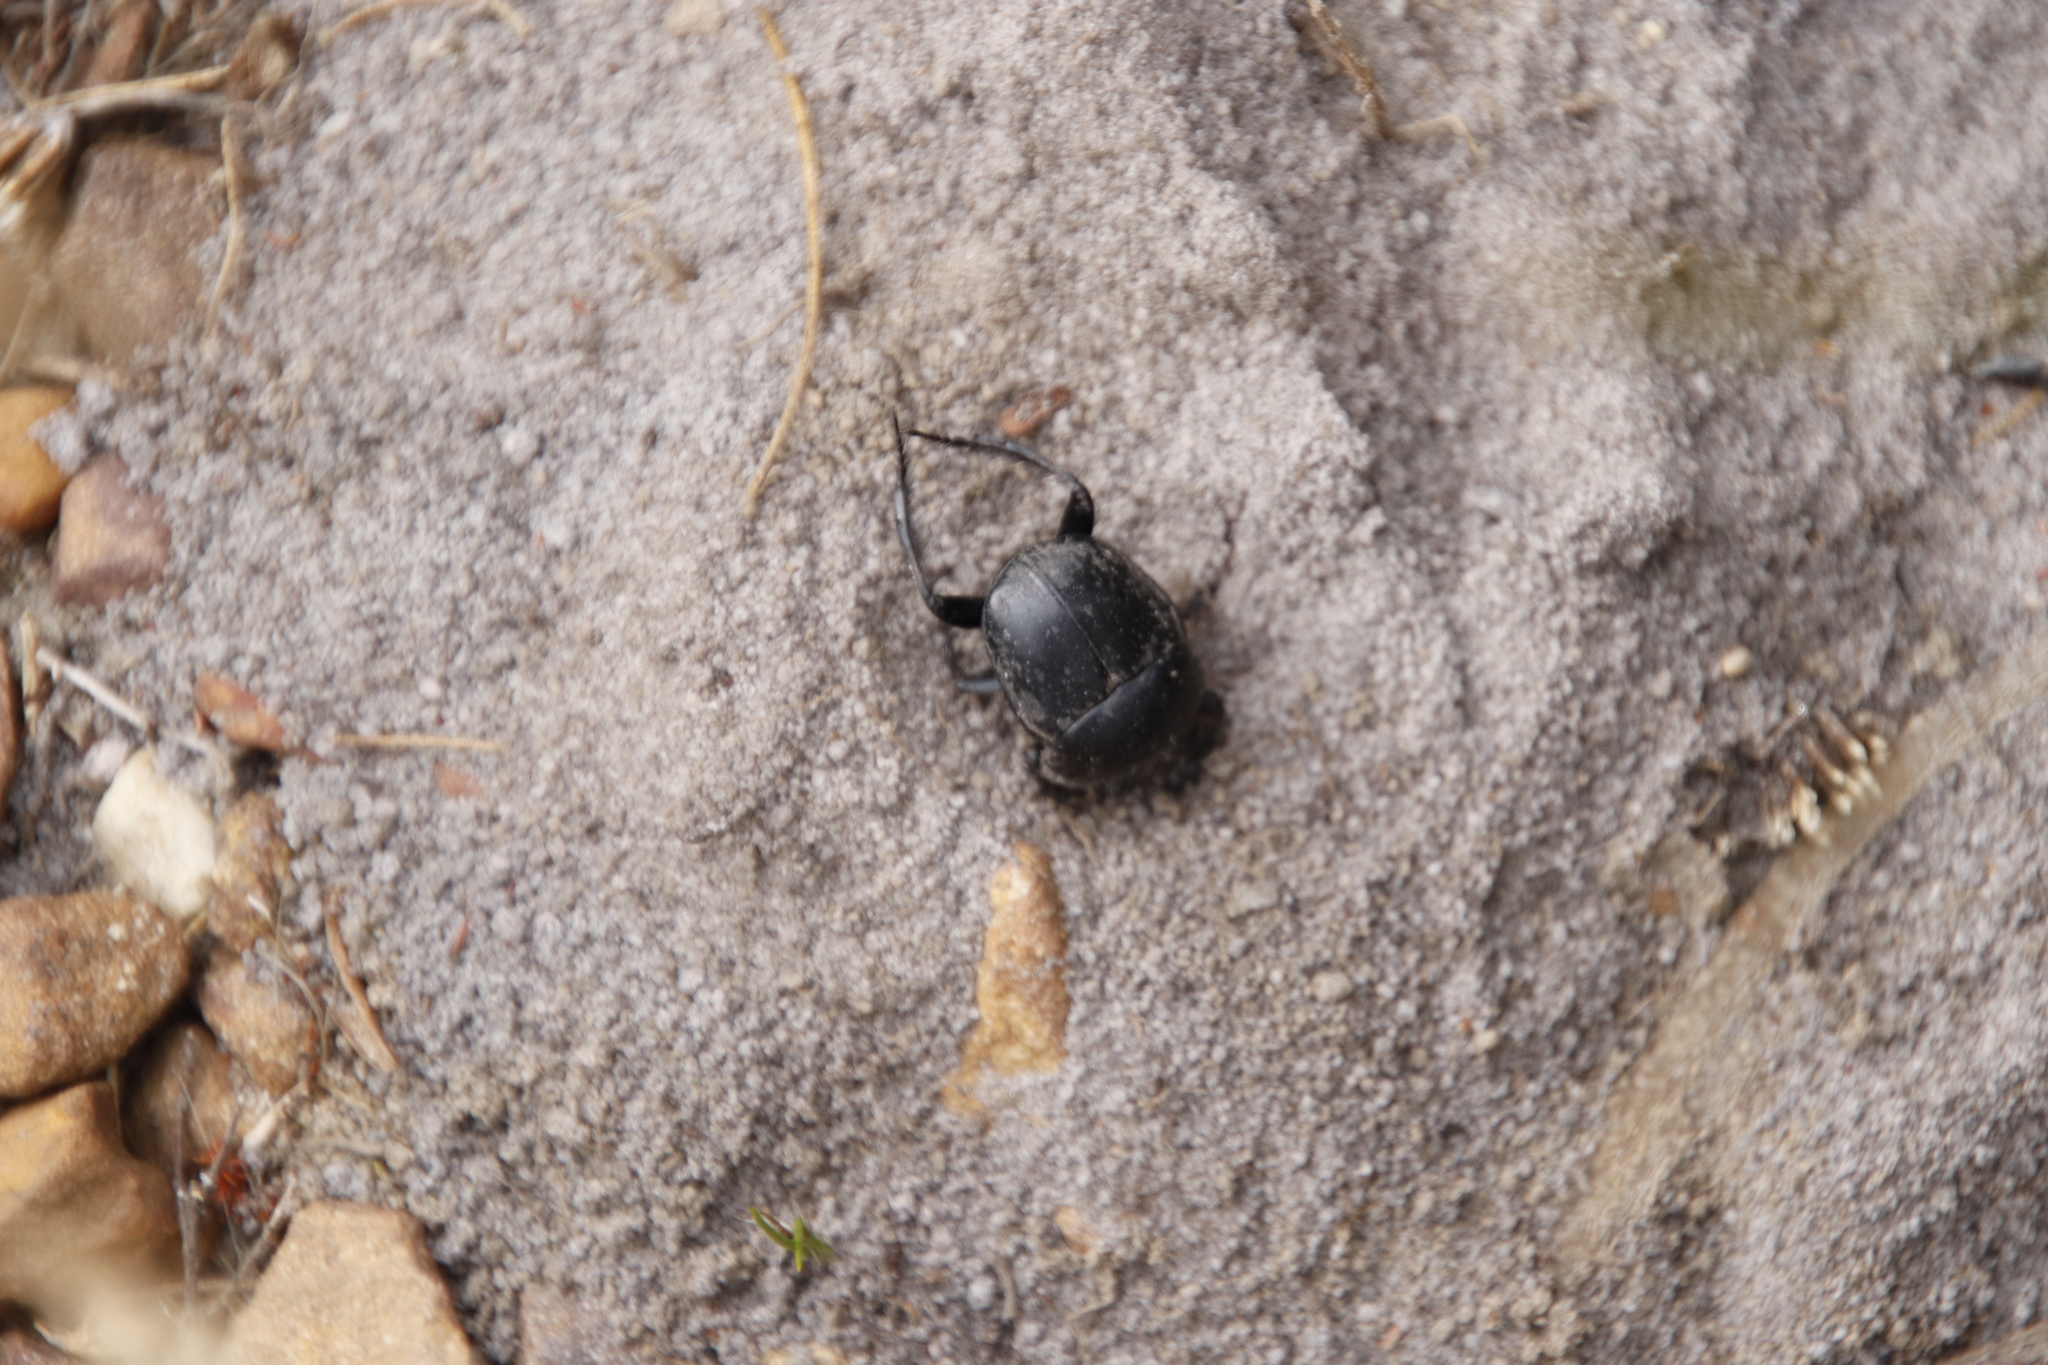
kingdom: Animalia
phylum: Arthropoda
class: Insecta
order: Coleoptera
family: Scarabaeidae
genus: Scarabaeus
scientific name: Scarabaeus convexus
